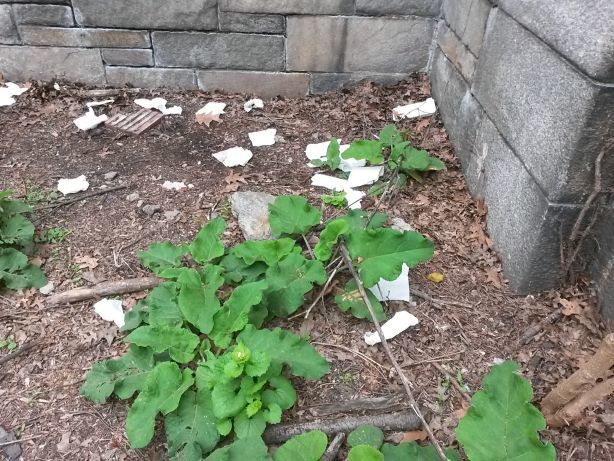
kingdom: Plantae
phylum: Tracheophyta
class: Magnoliopsida
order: Asterales
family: Asteraceae
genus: Arctium
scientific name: Arctium
